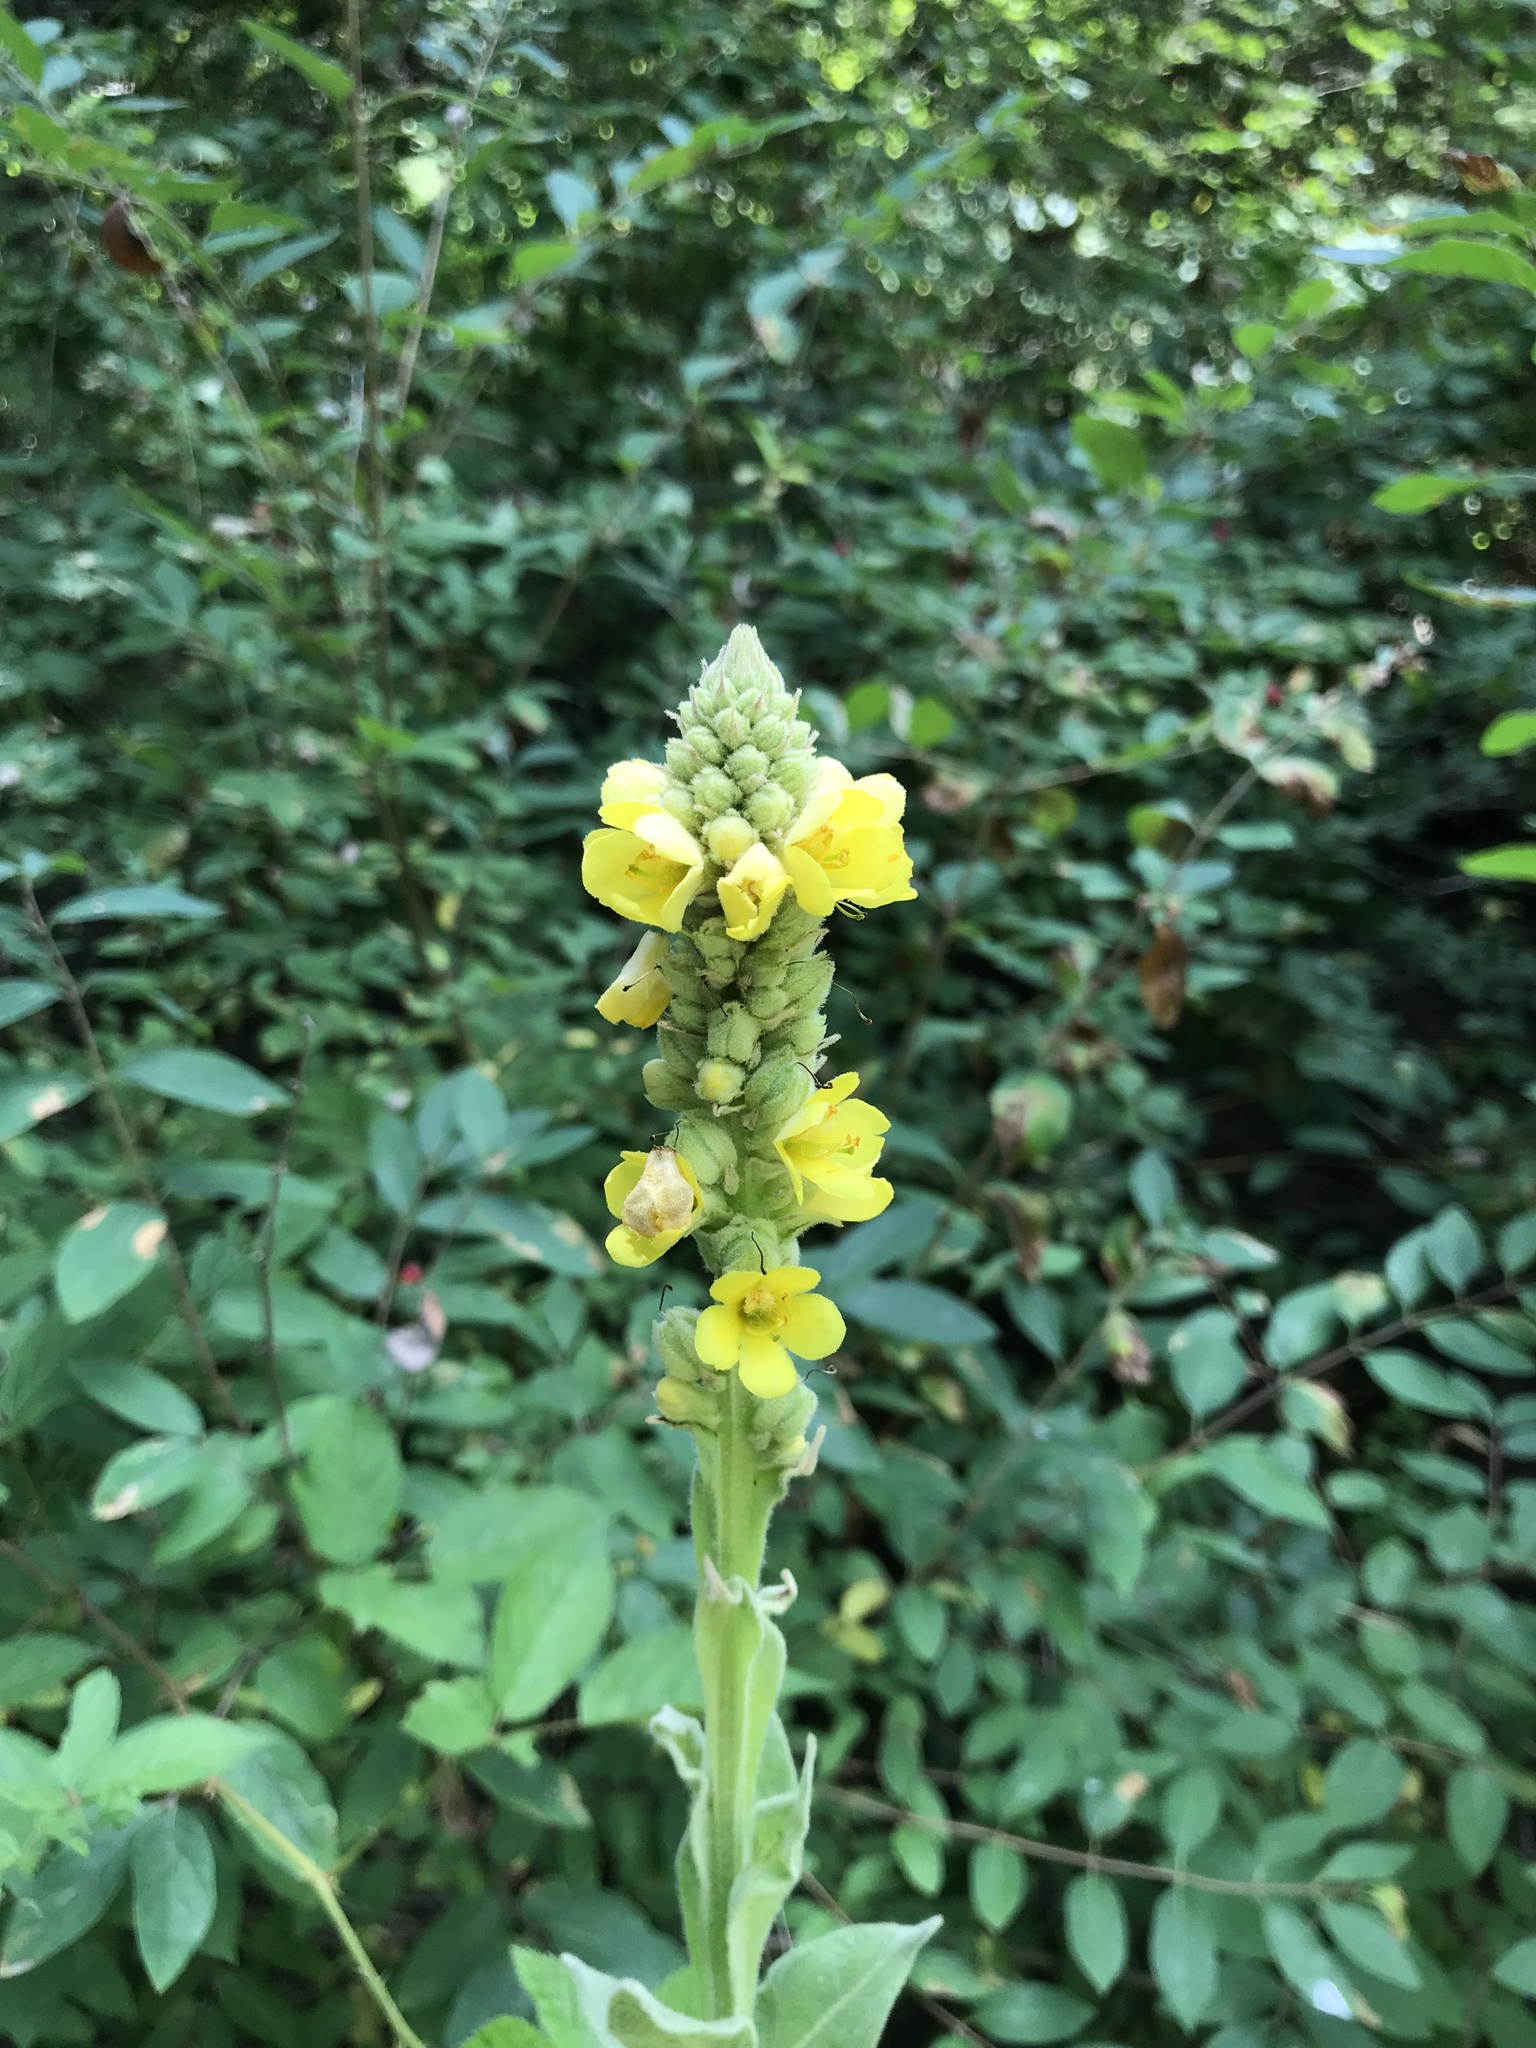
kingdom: Plantae
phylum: Tracheophyta
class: Magnoliopsida
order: Lamiales
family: Scrophulariaceae
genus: Verbascum
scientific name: Verbascum thapsus
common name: Common mullein
